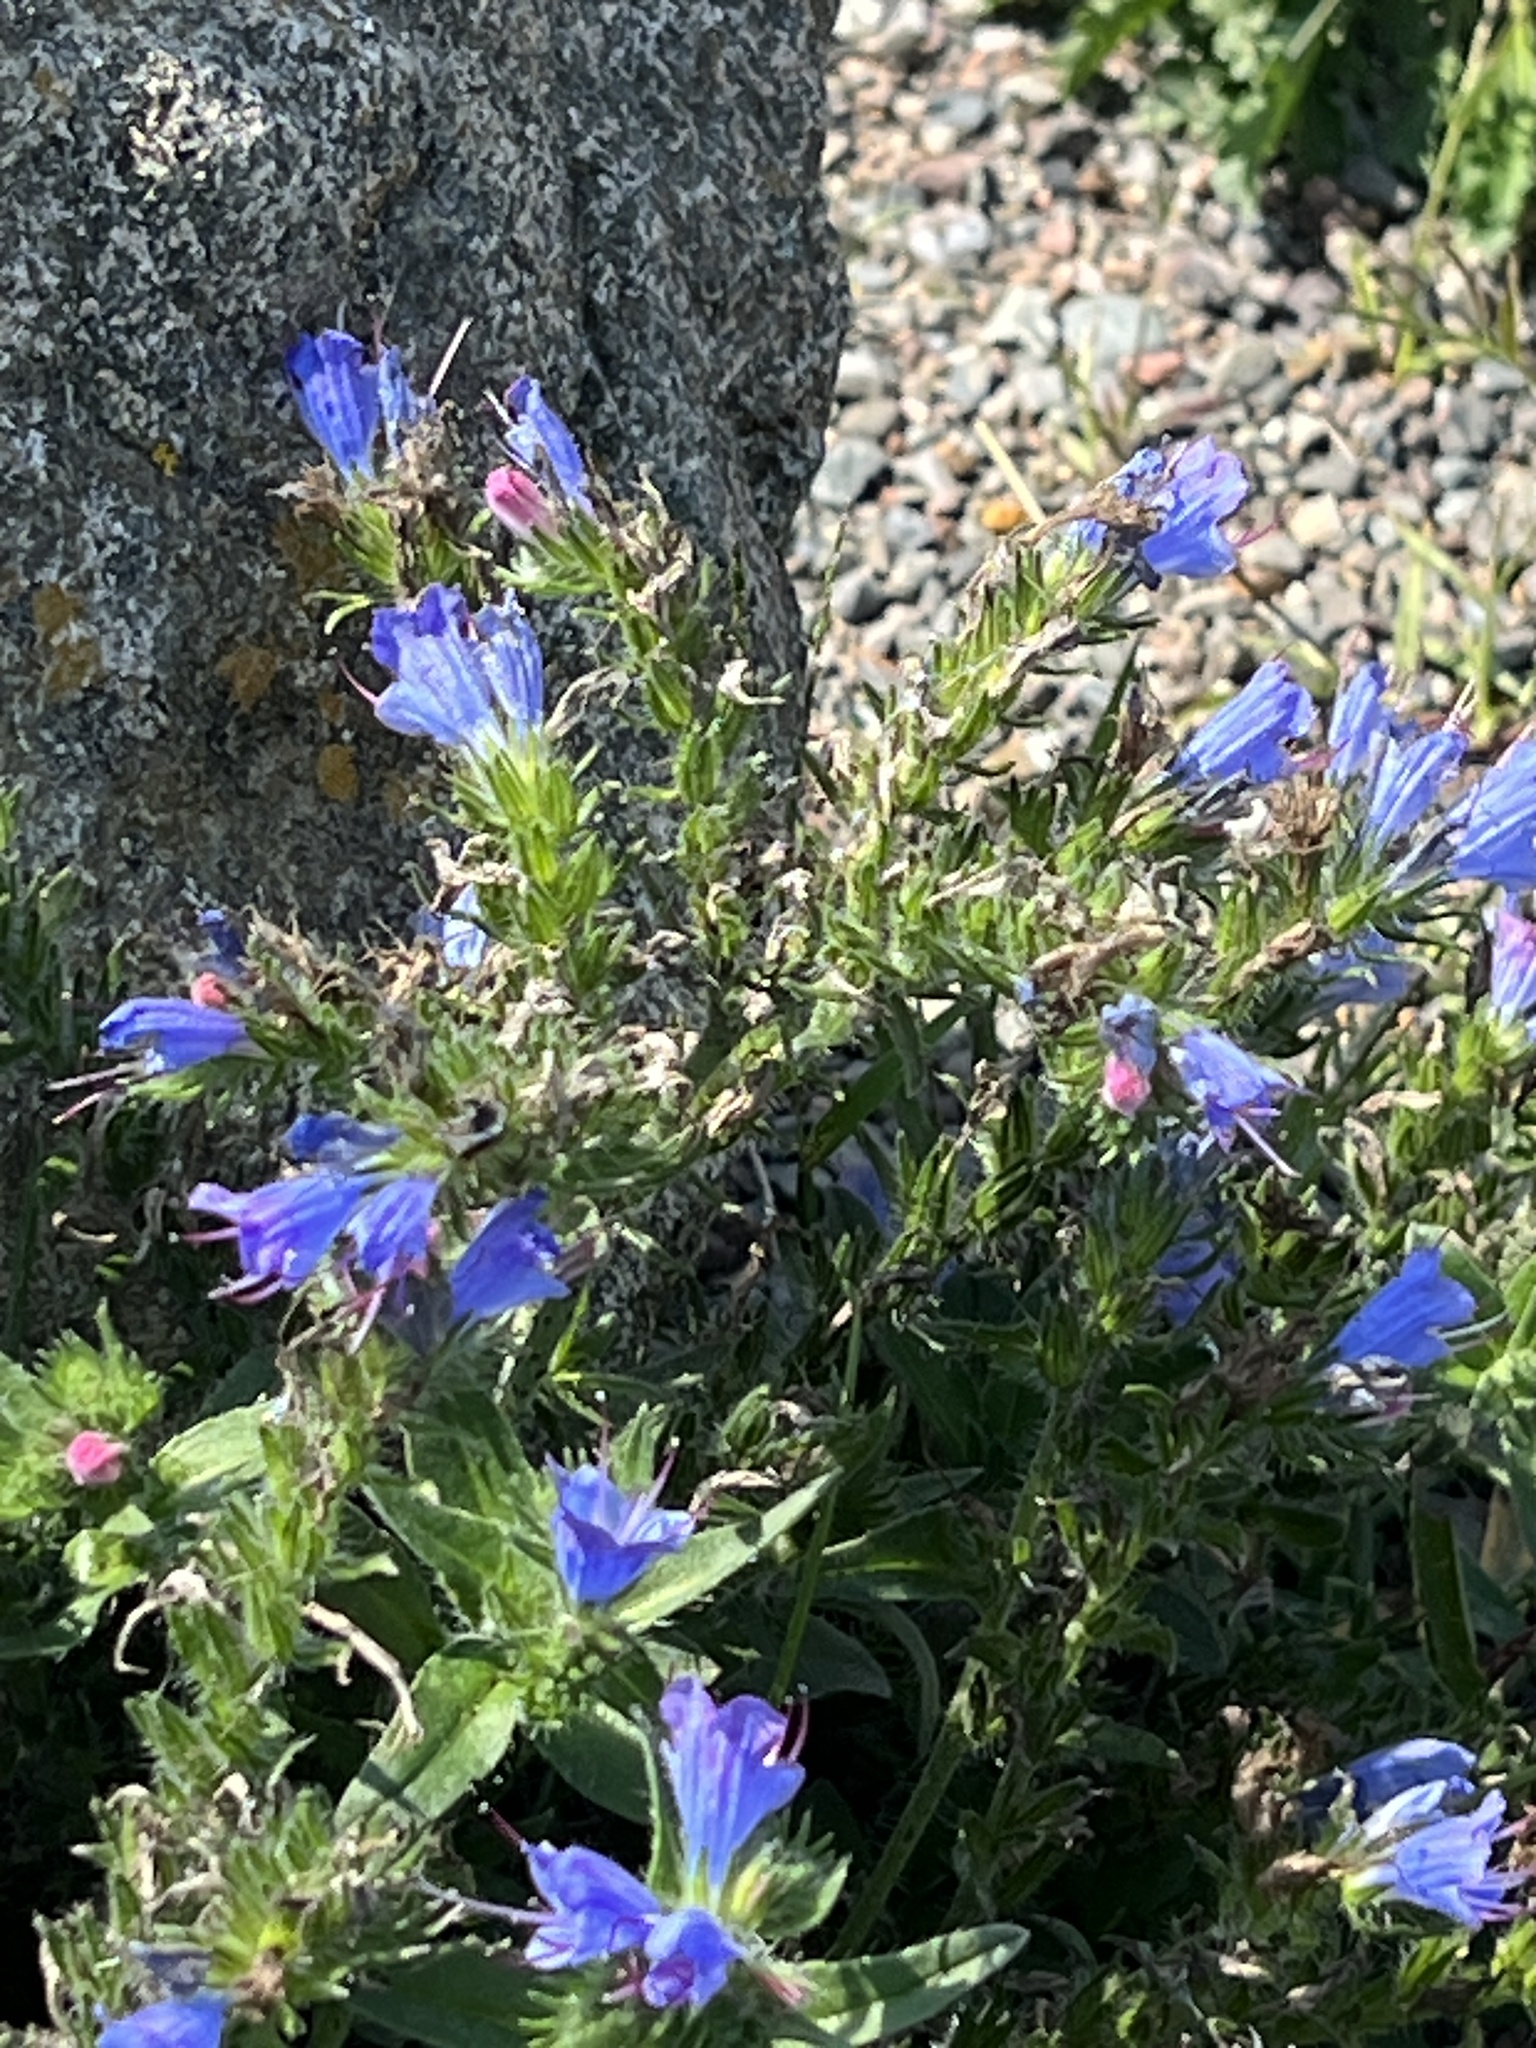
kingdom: Plantae
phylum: Tracheophyta
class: Magnoliopsida
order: Boraginales
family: Boraginaceae
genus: Echium
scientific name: Echium vulgare
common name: Common viper's bugloss
